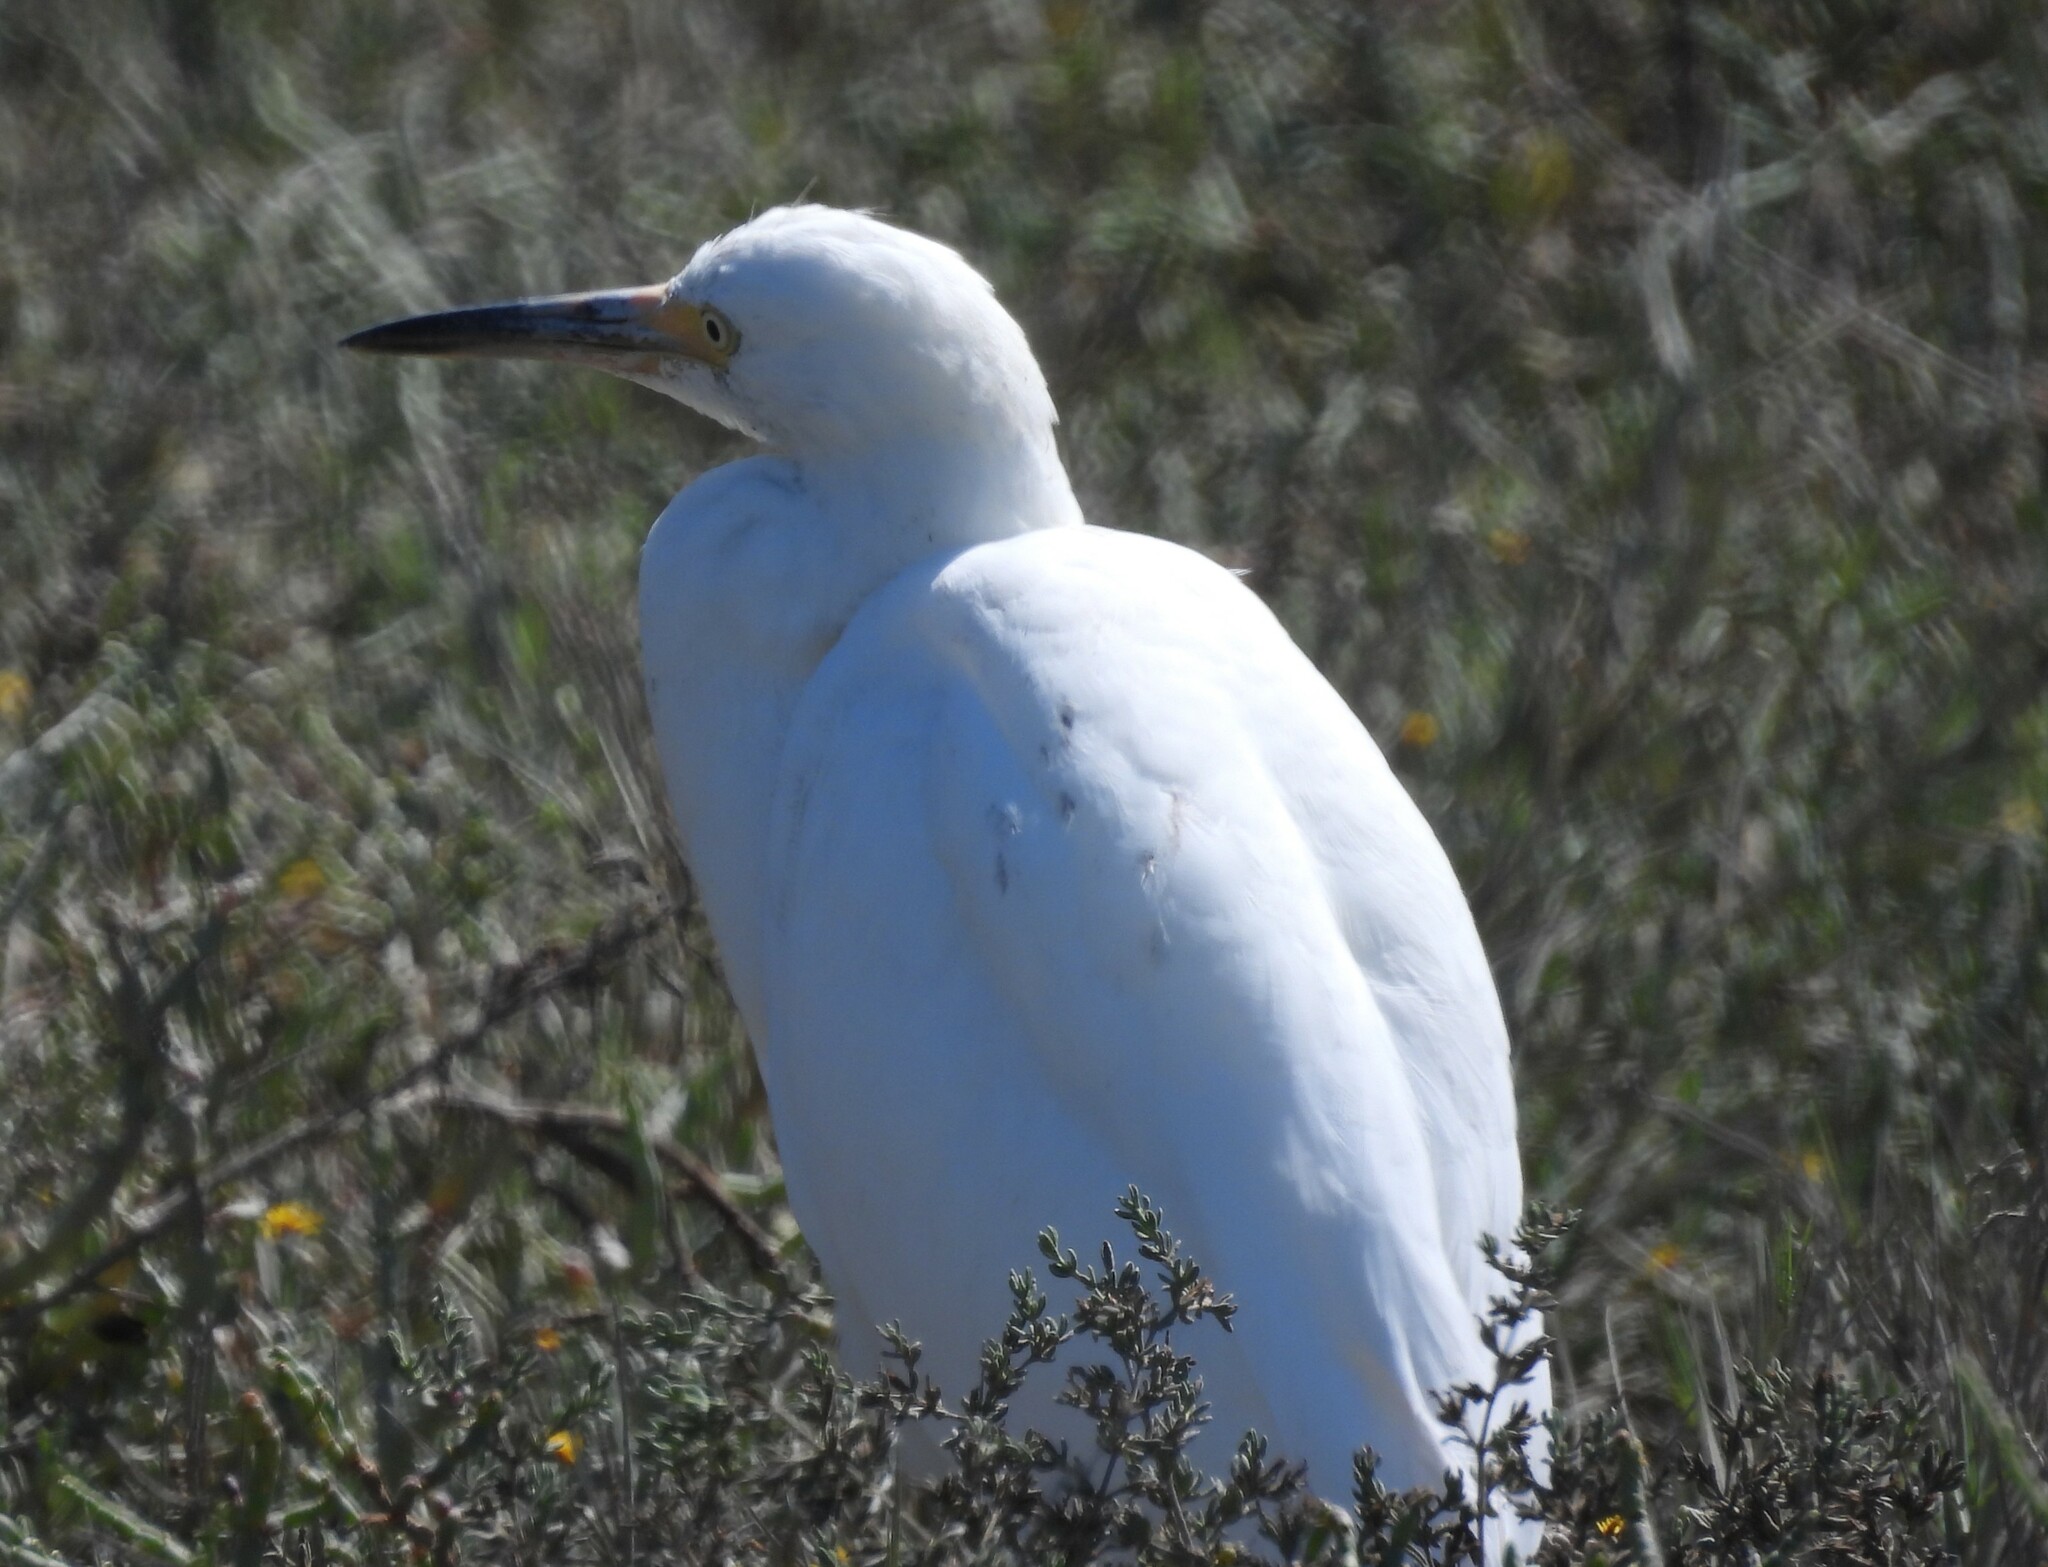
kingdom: Animalia
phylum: Chordata
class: Aves
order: Pelecaniformes
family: Ardeidae
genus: Egretta
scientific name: Egretta thula
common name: Snowy egret
